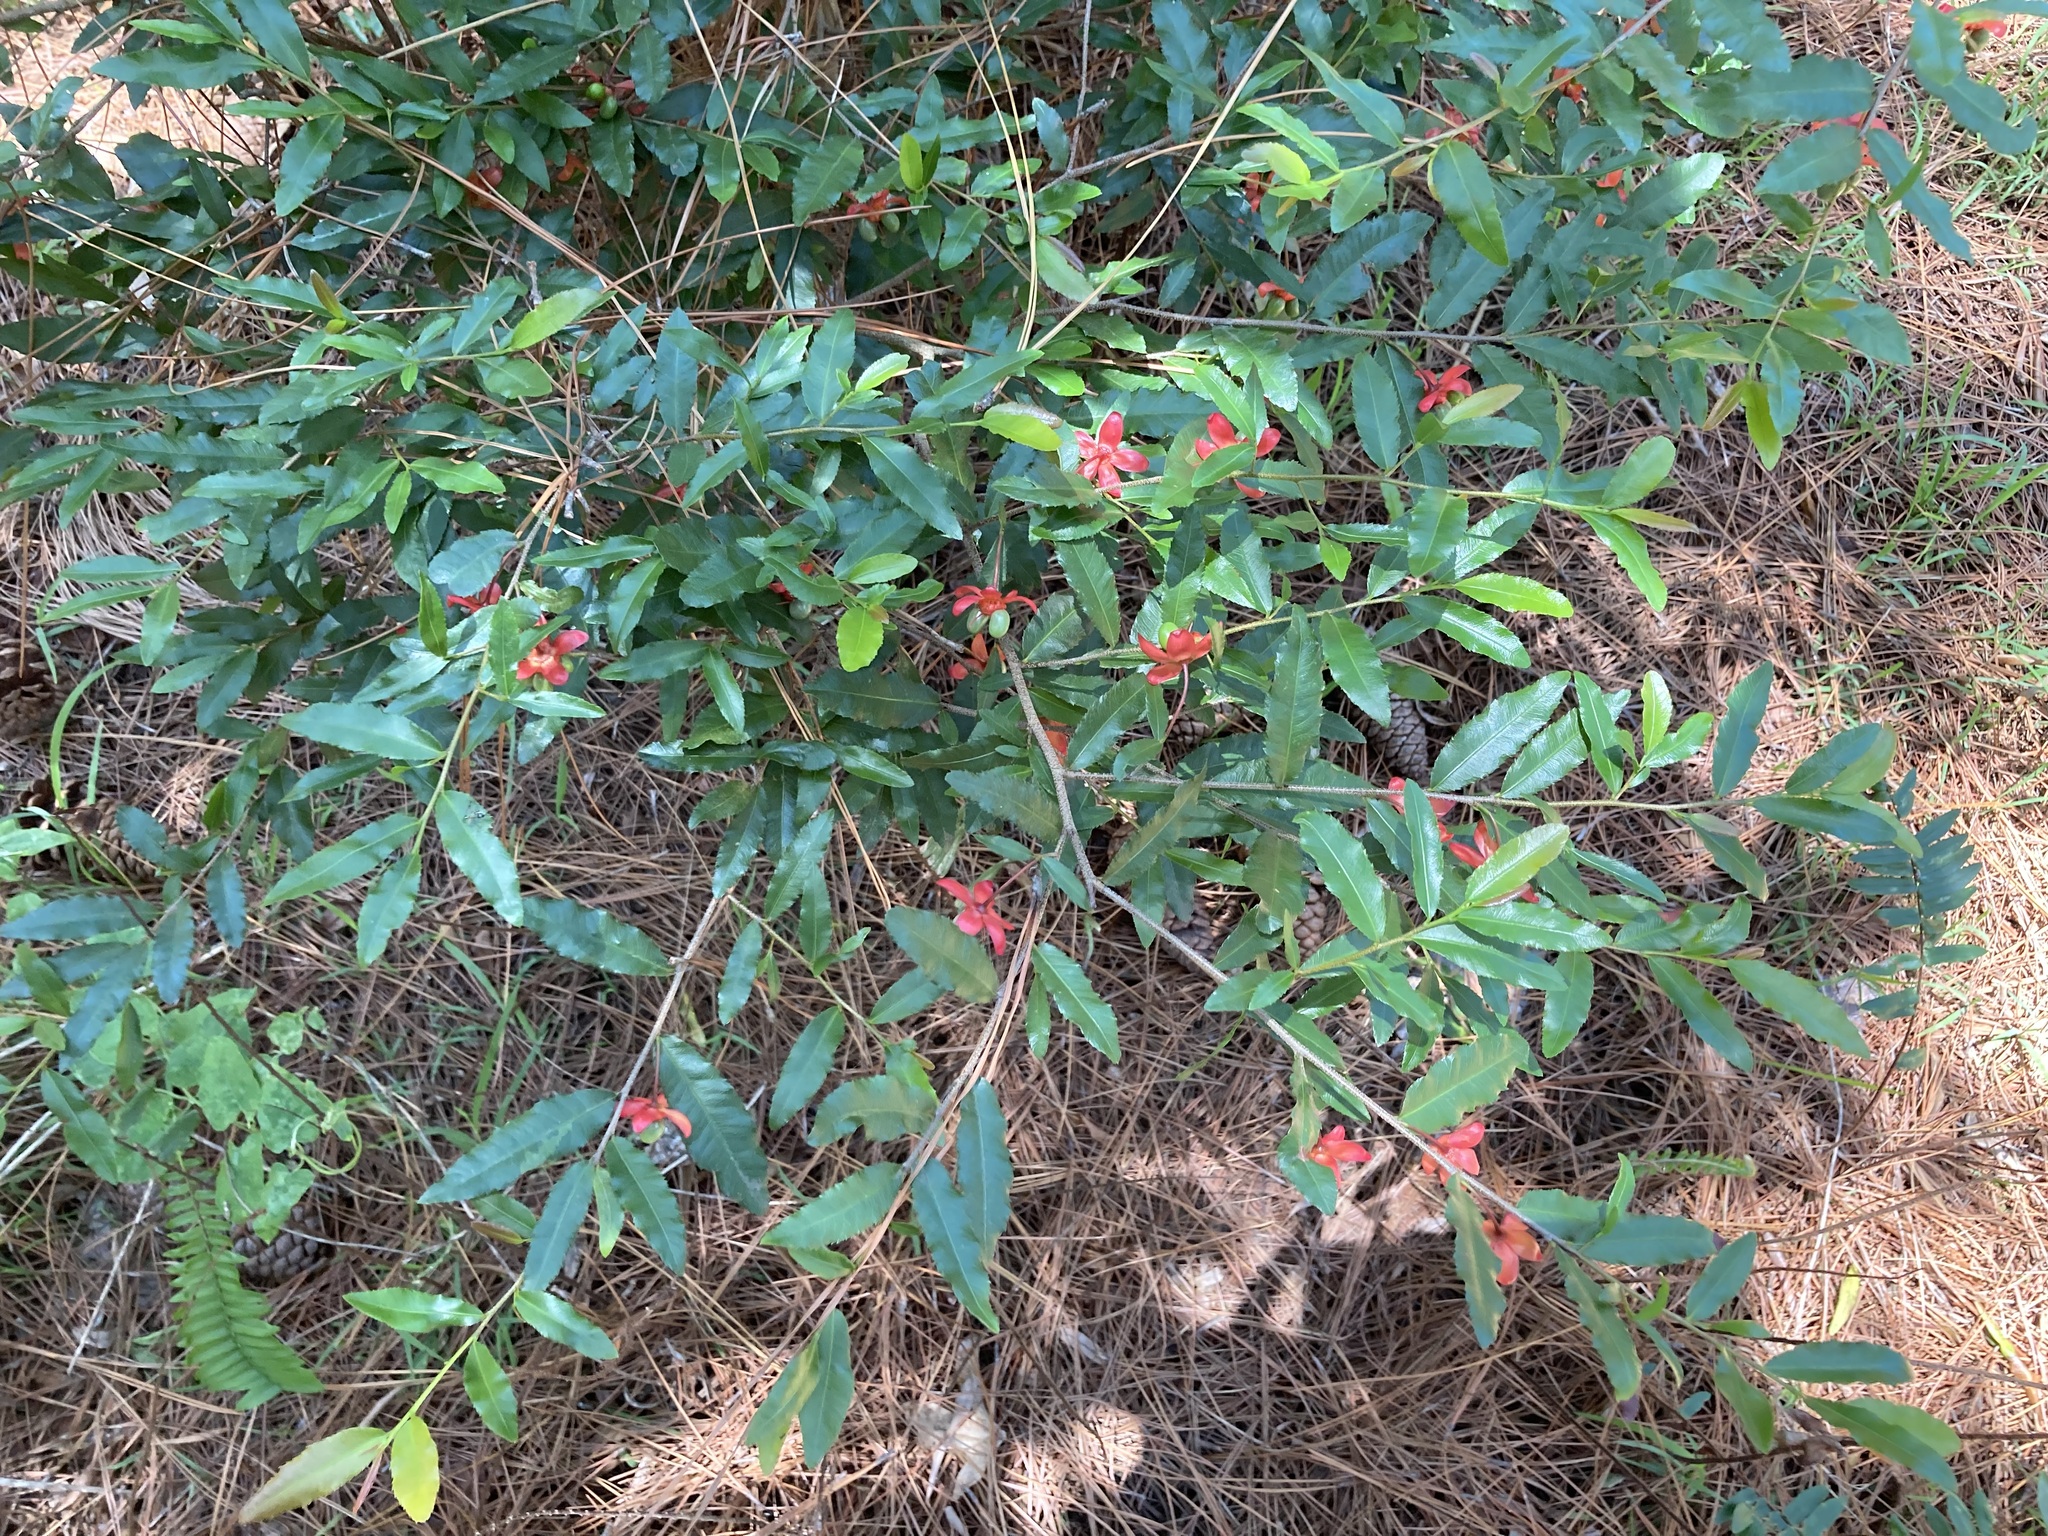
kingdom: Plantae
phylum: Tracheophyta
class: Magnoliopsida
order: Malpighiales
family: Ochnaceae
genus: Ochna
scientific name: Ochna serrulata
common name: Mickey mouse plant
